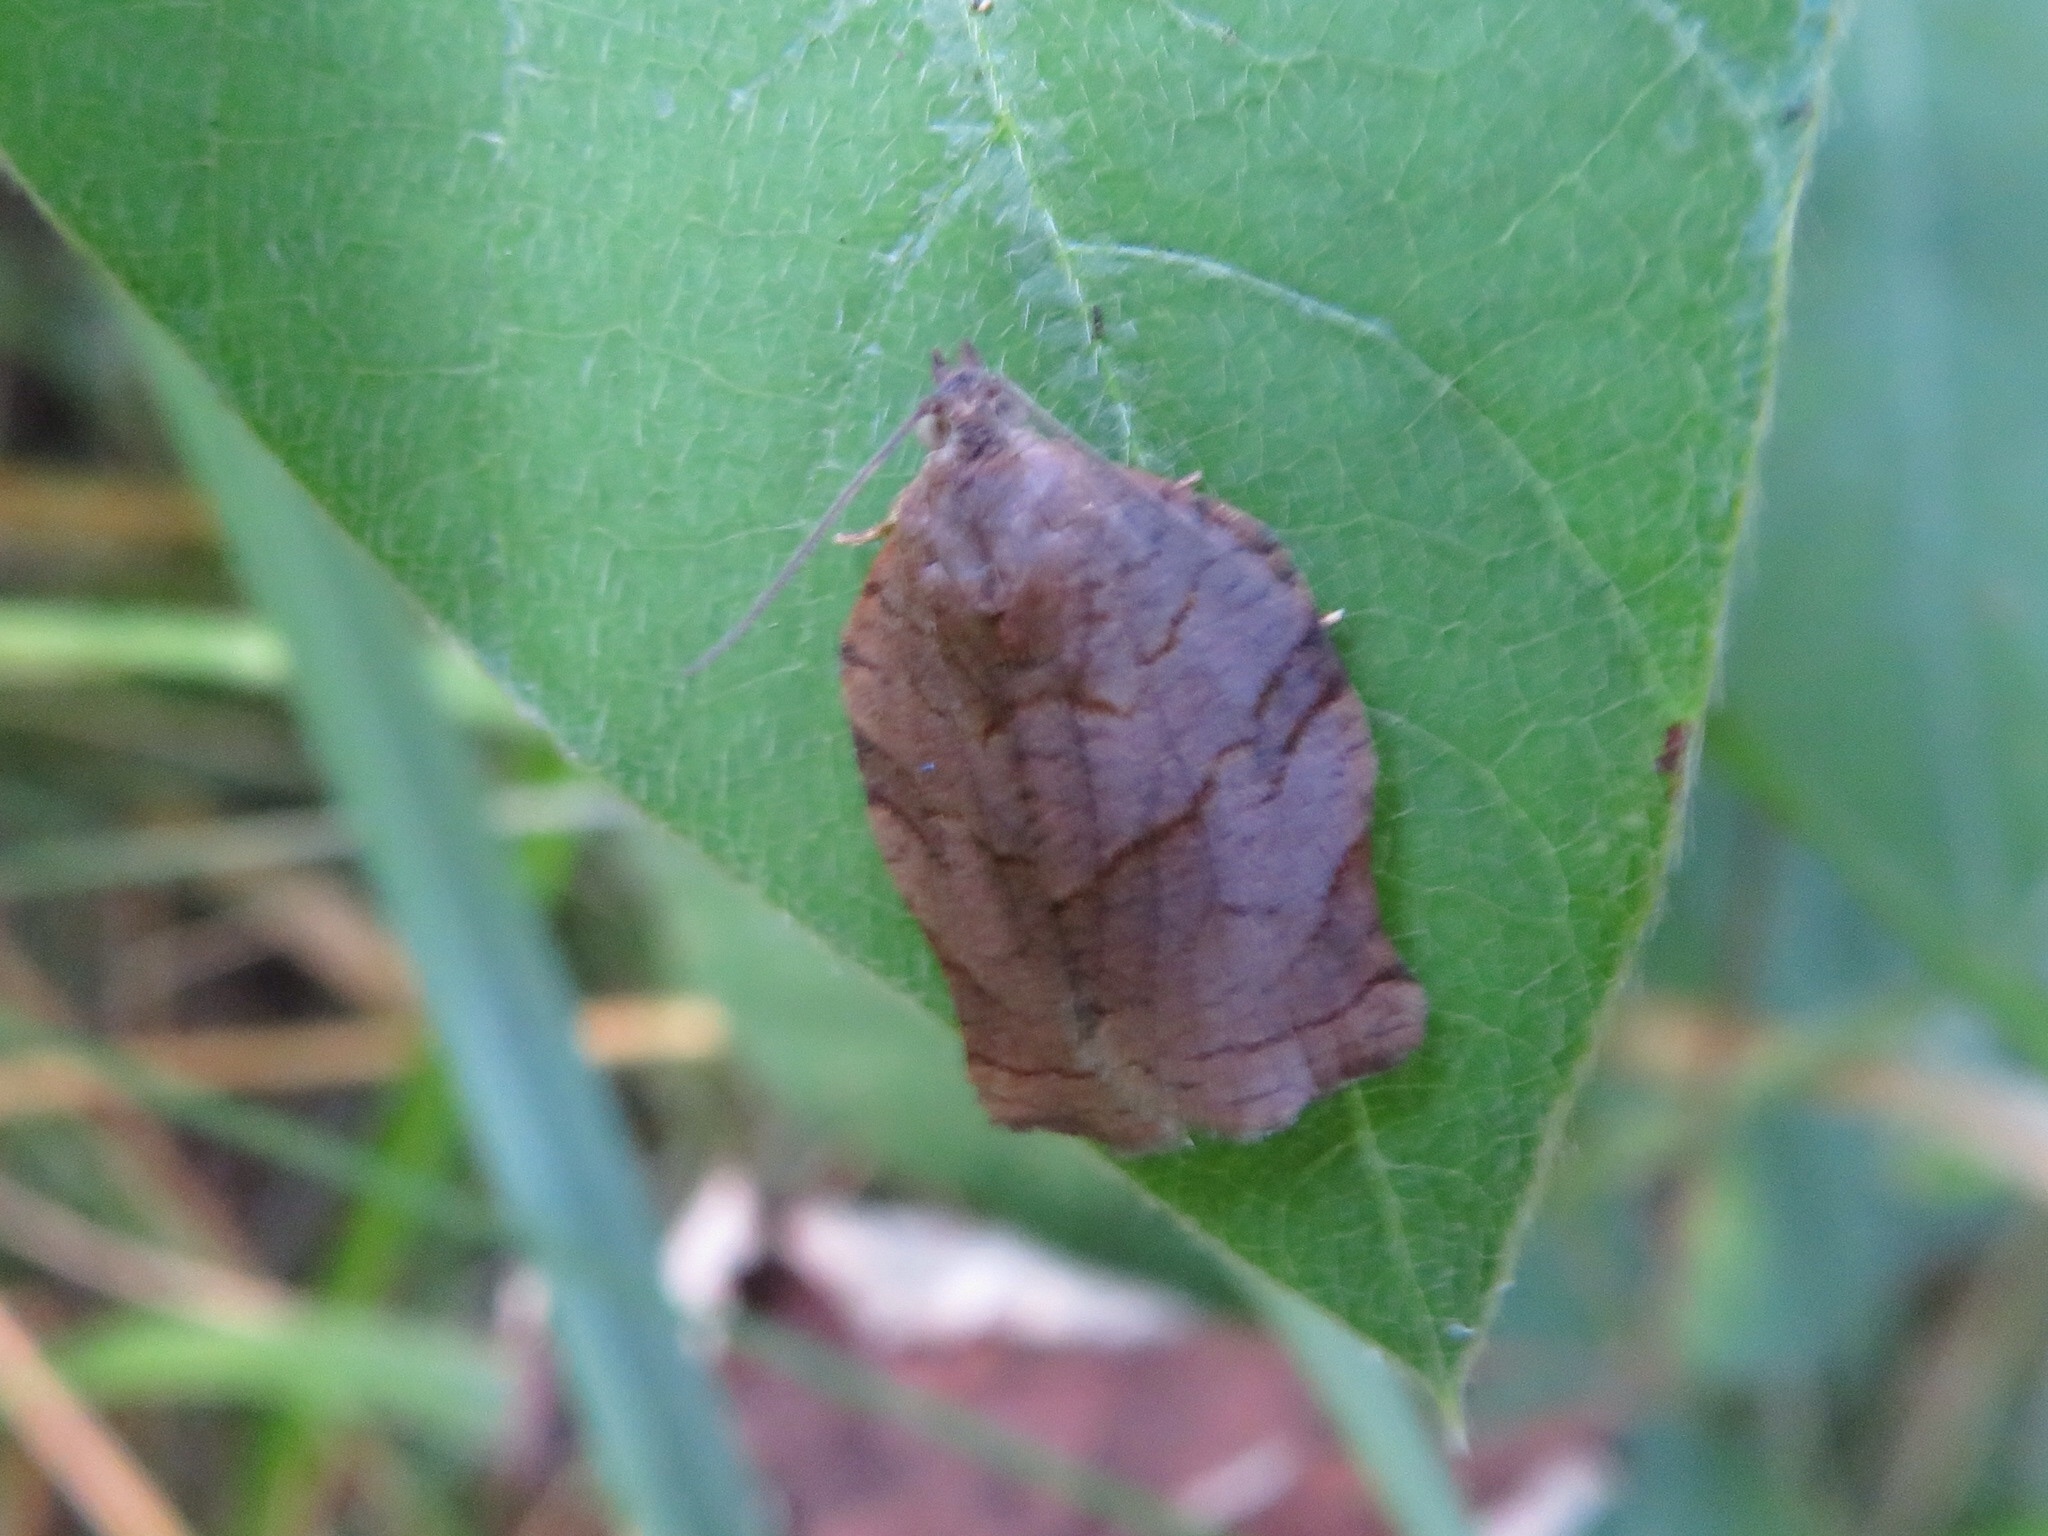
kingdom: Animalia
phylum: Arthropoda
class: Insecta
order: Lepidoptera
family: Tortricidae
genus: Archips
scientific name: Archips purpurana
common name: Omnivorous leafroller
